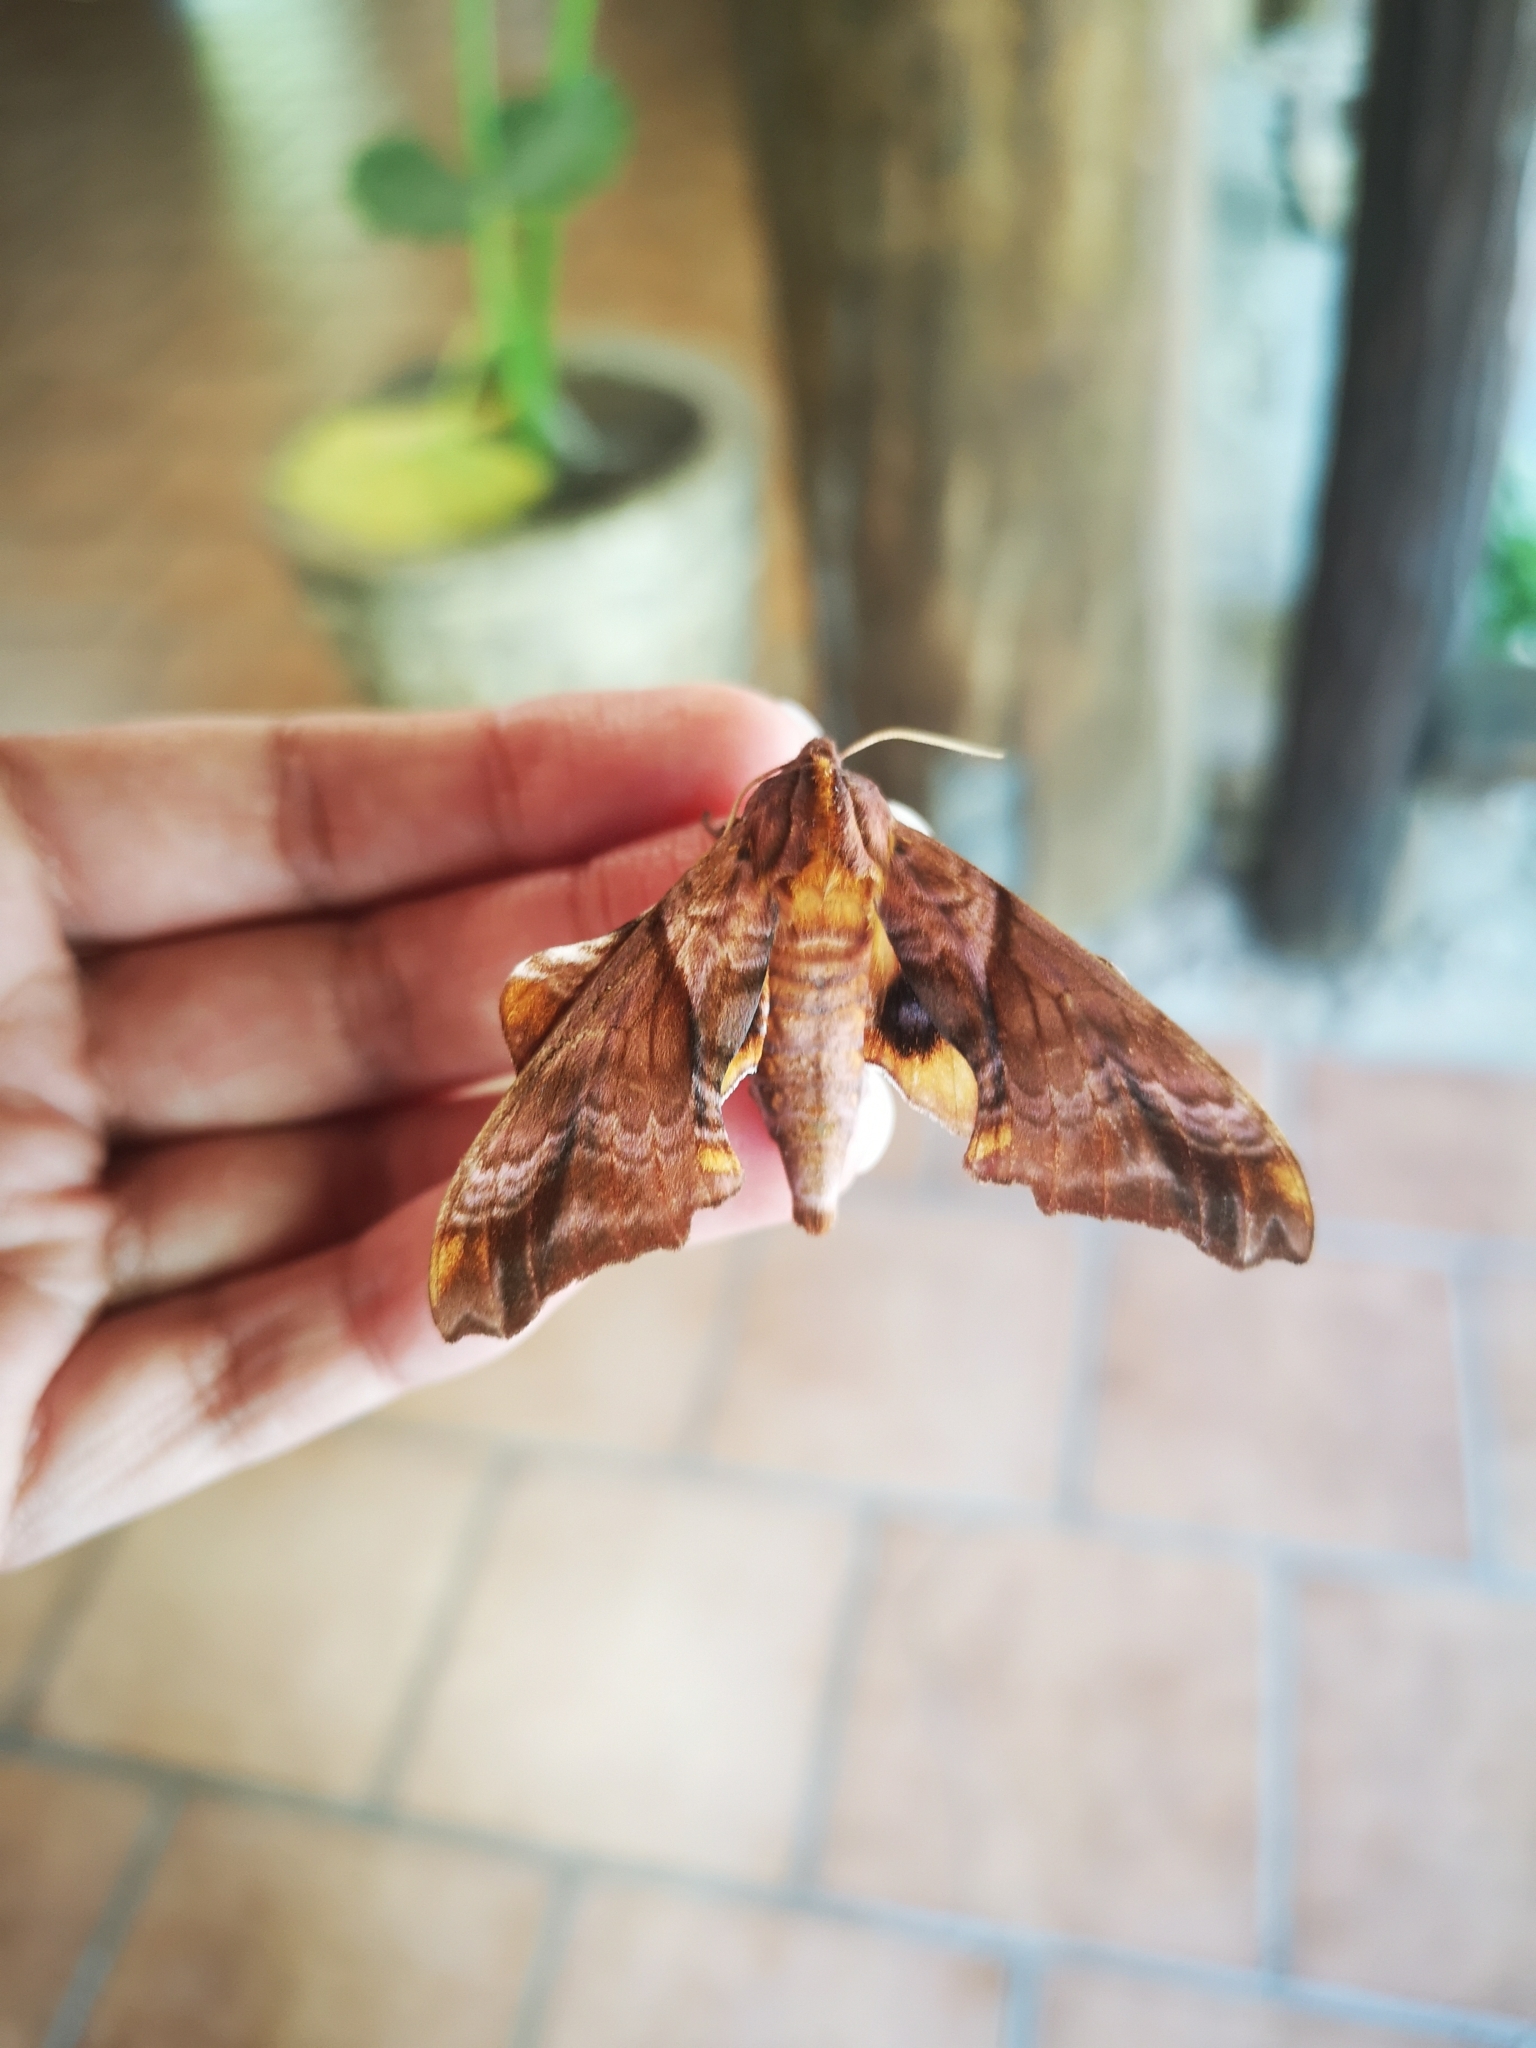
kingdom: Animalia
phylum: Arthropoda
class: Insecta
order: Lepidoptera
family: Sphingidae
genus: Paonias
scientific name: Paonias myops
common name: Small-eyed sphinx
